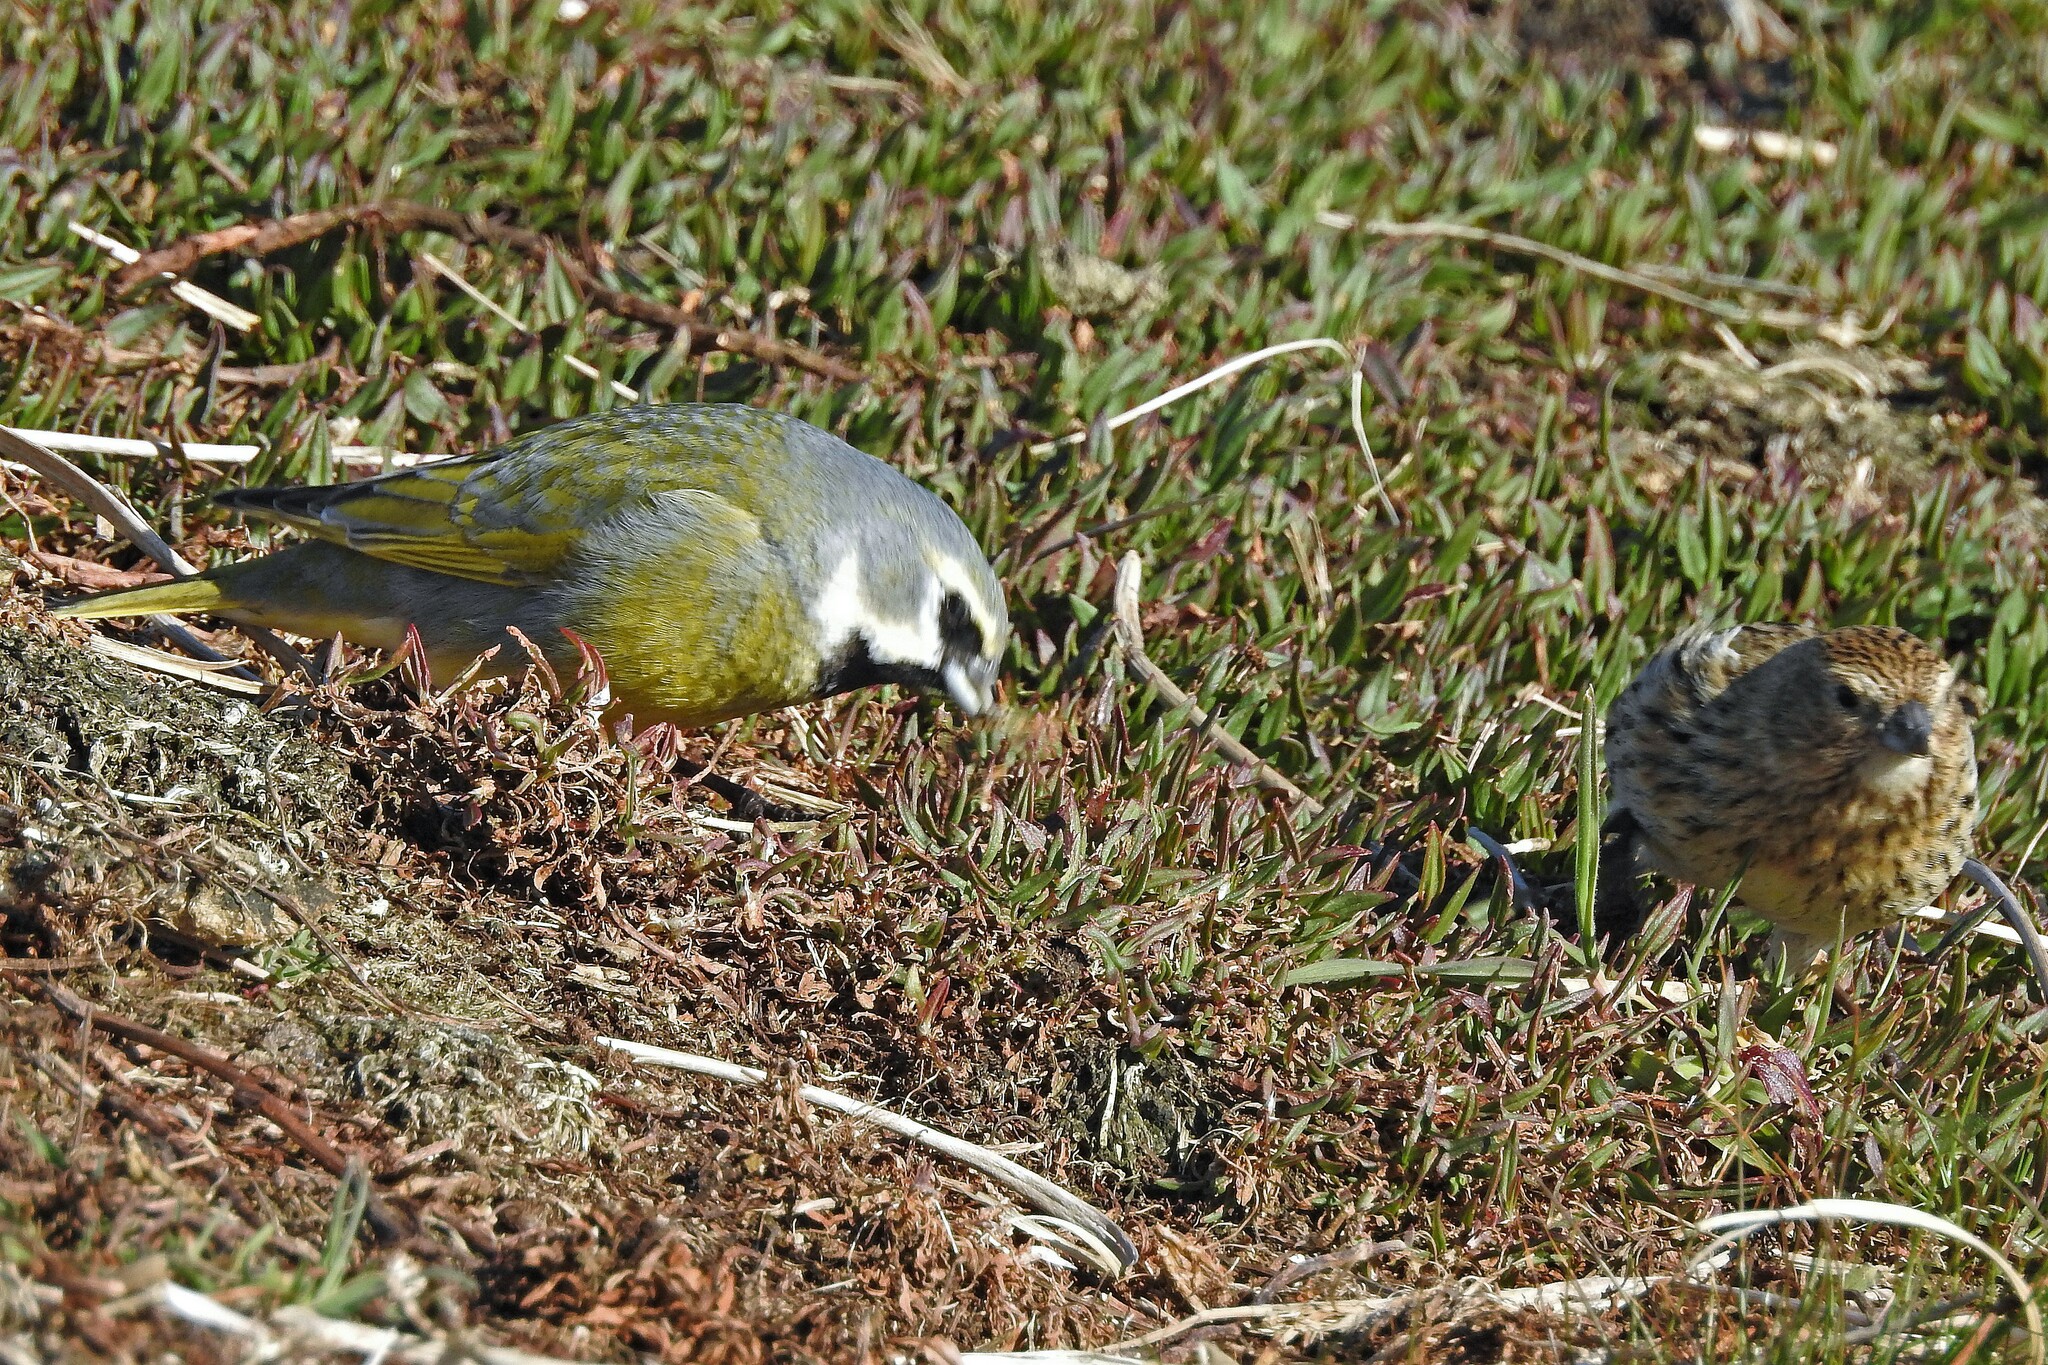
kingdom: Animalia
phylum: Chordata
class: Aves
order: Passeriformes
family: Thraupidae
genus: Melanodera
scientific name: Melanodera melanodera
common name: White-bridled finch
